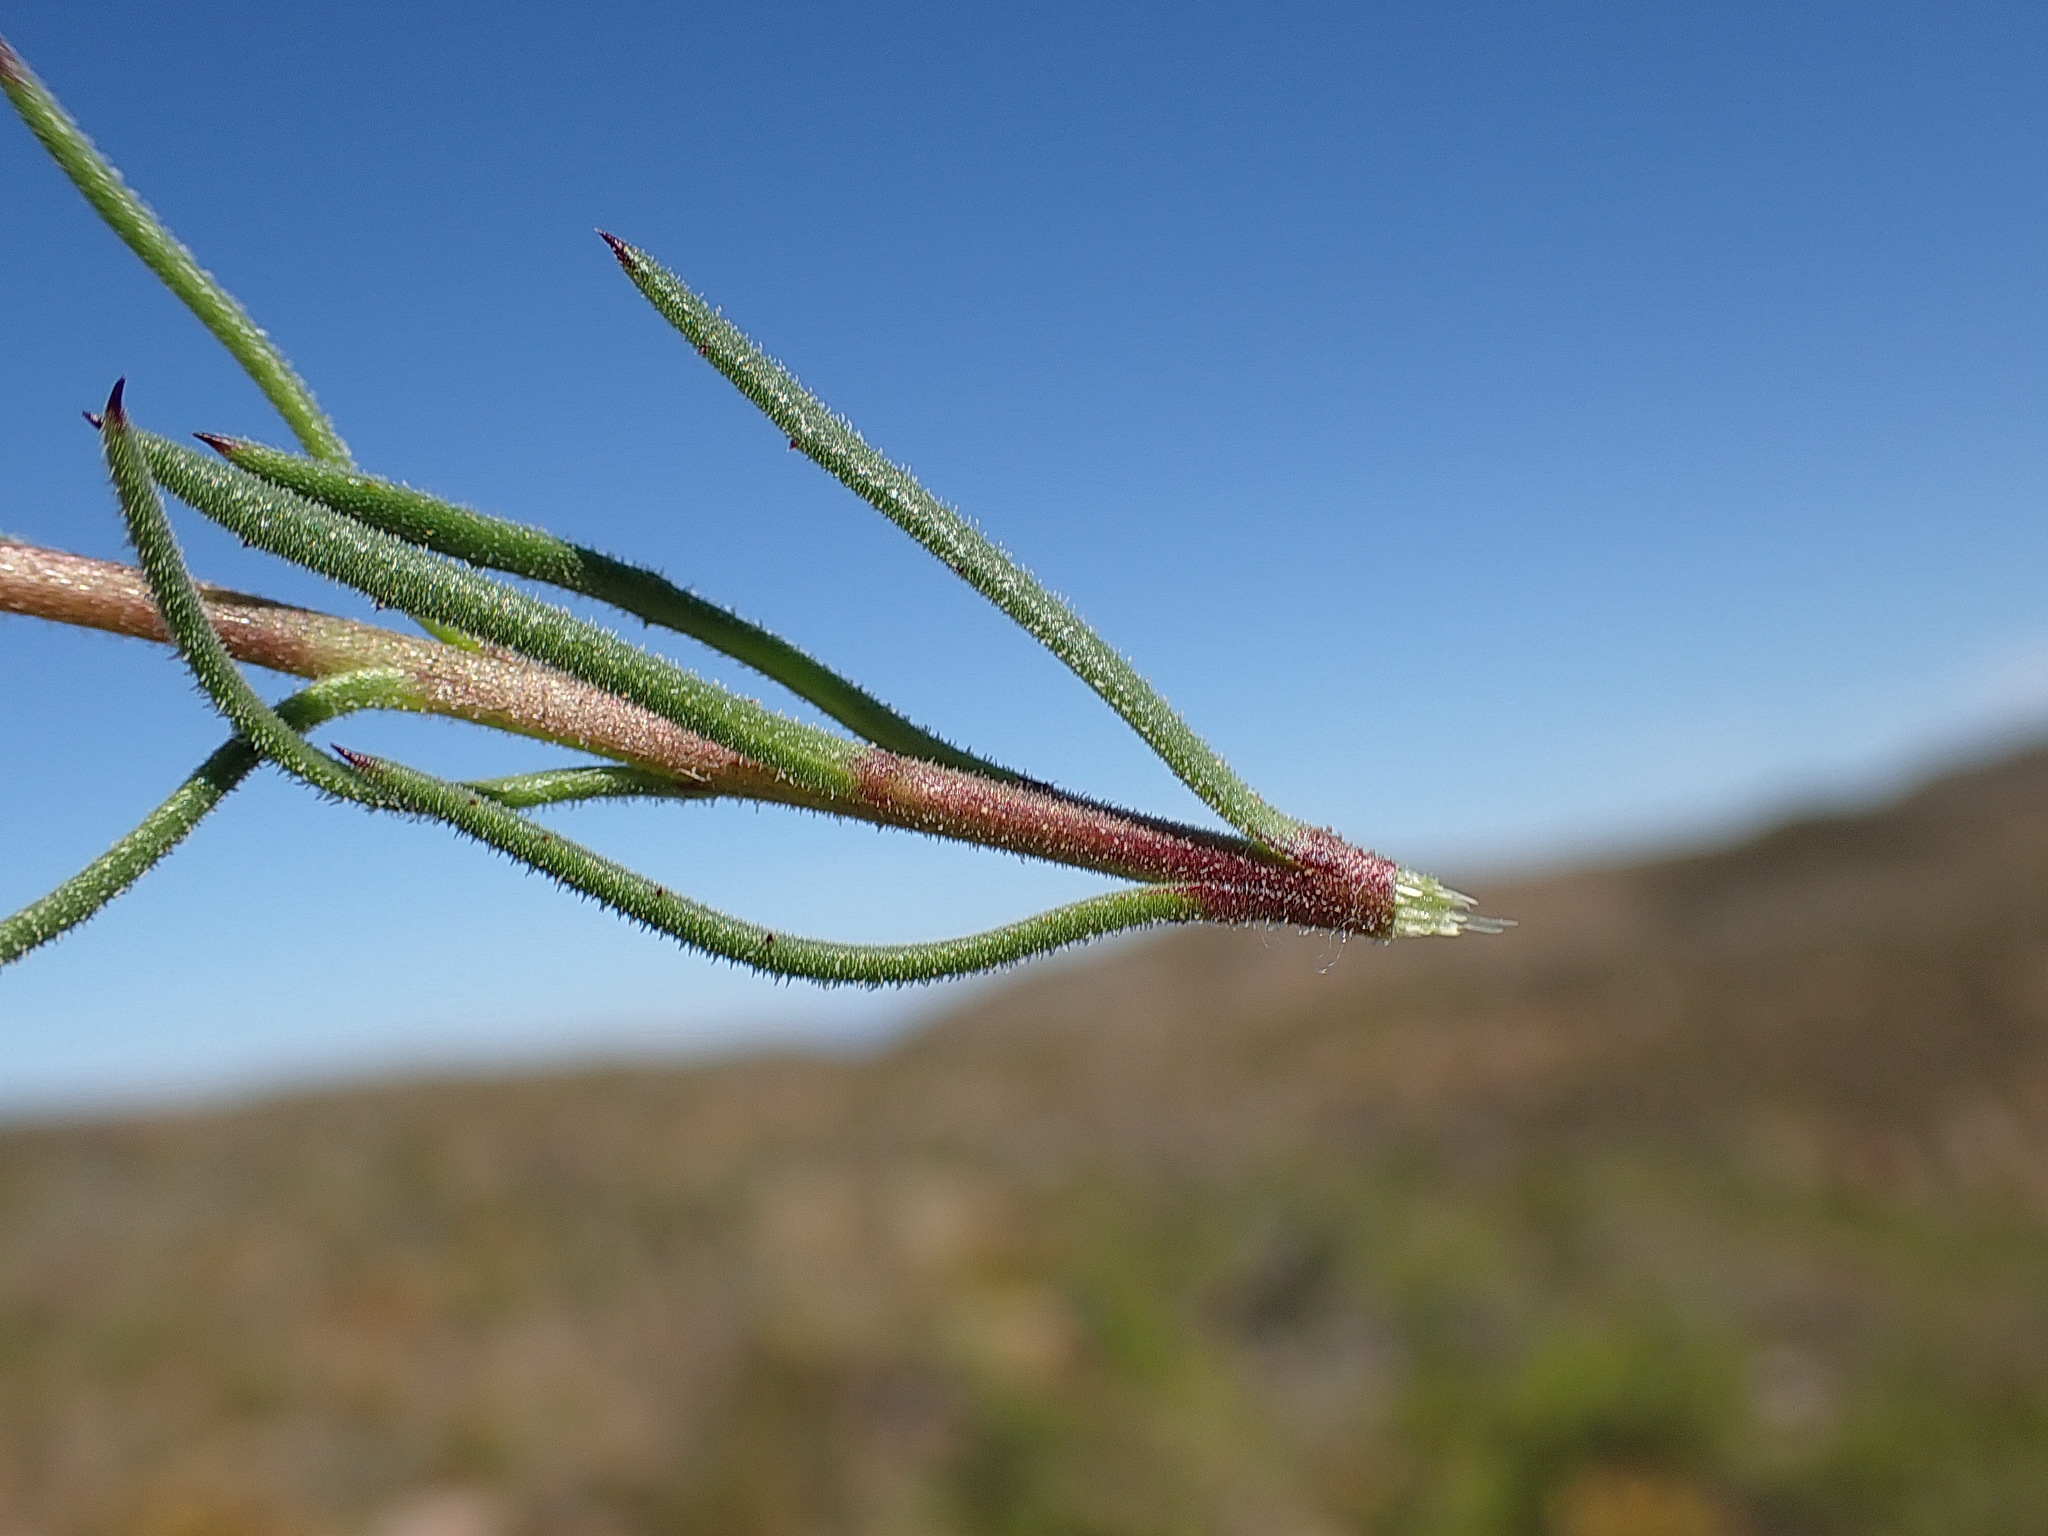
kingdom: Plantae
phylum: Tracheophyta
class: Magnoliopsida
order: Asterales
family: Asteraceae
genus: Dimorphotheca
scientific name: Dimorphotheca montana
